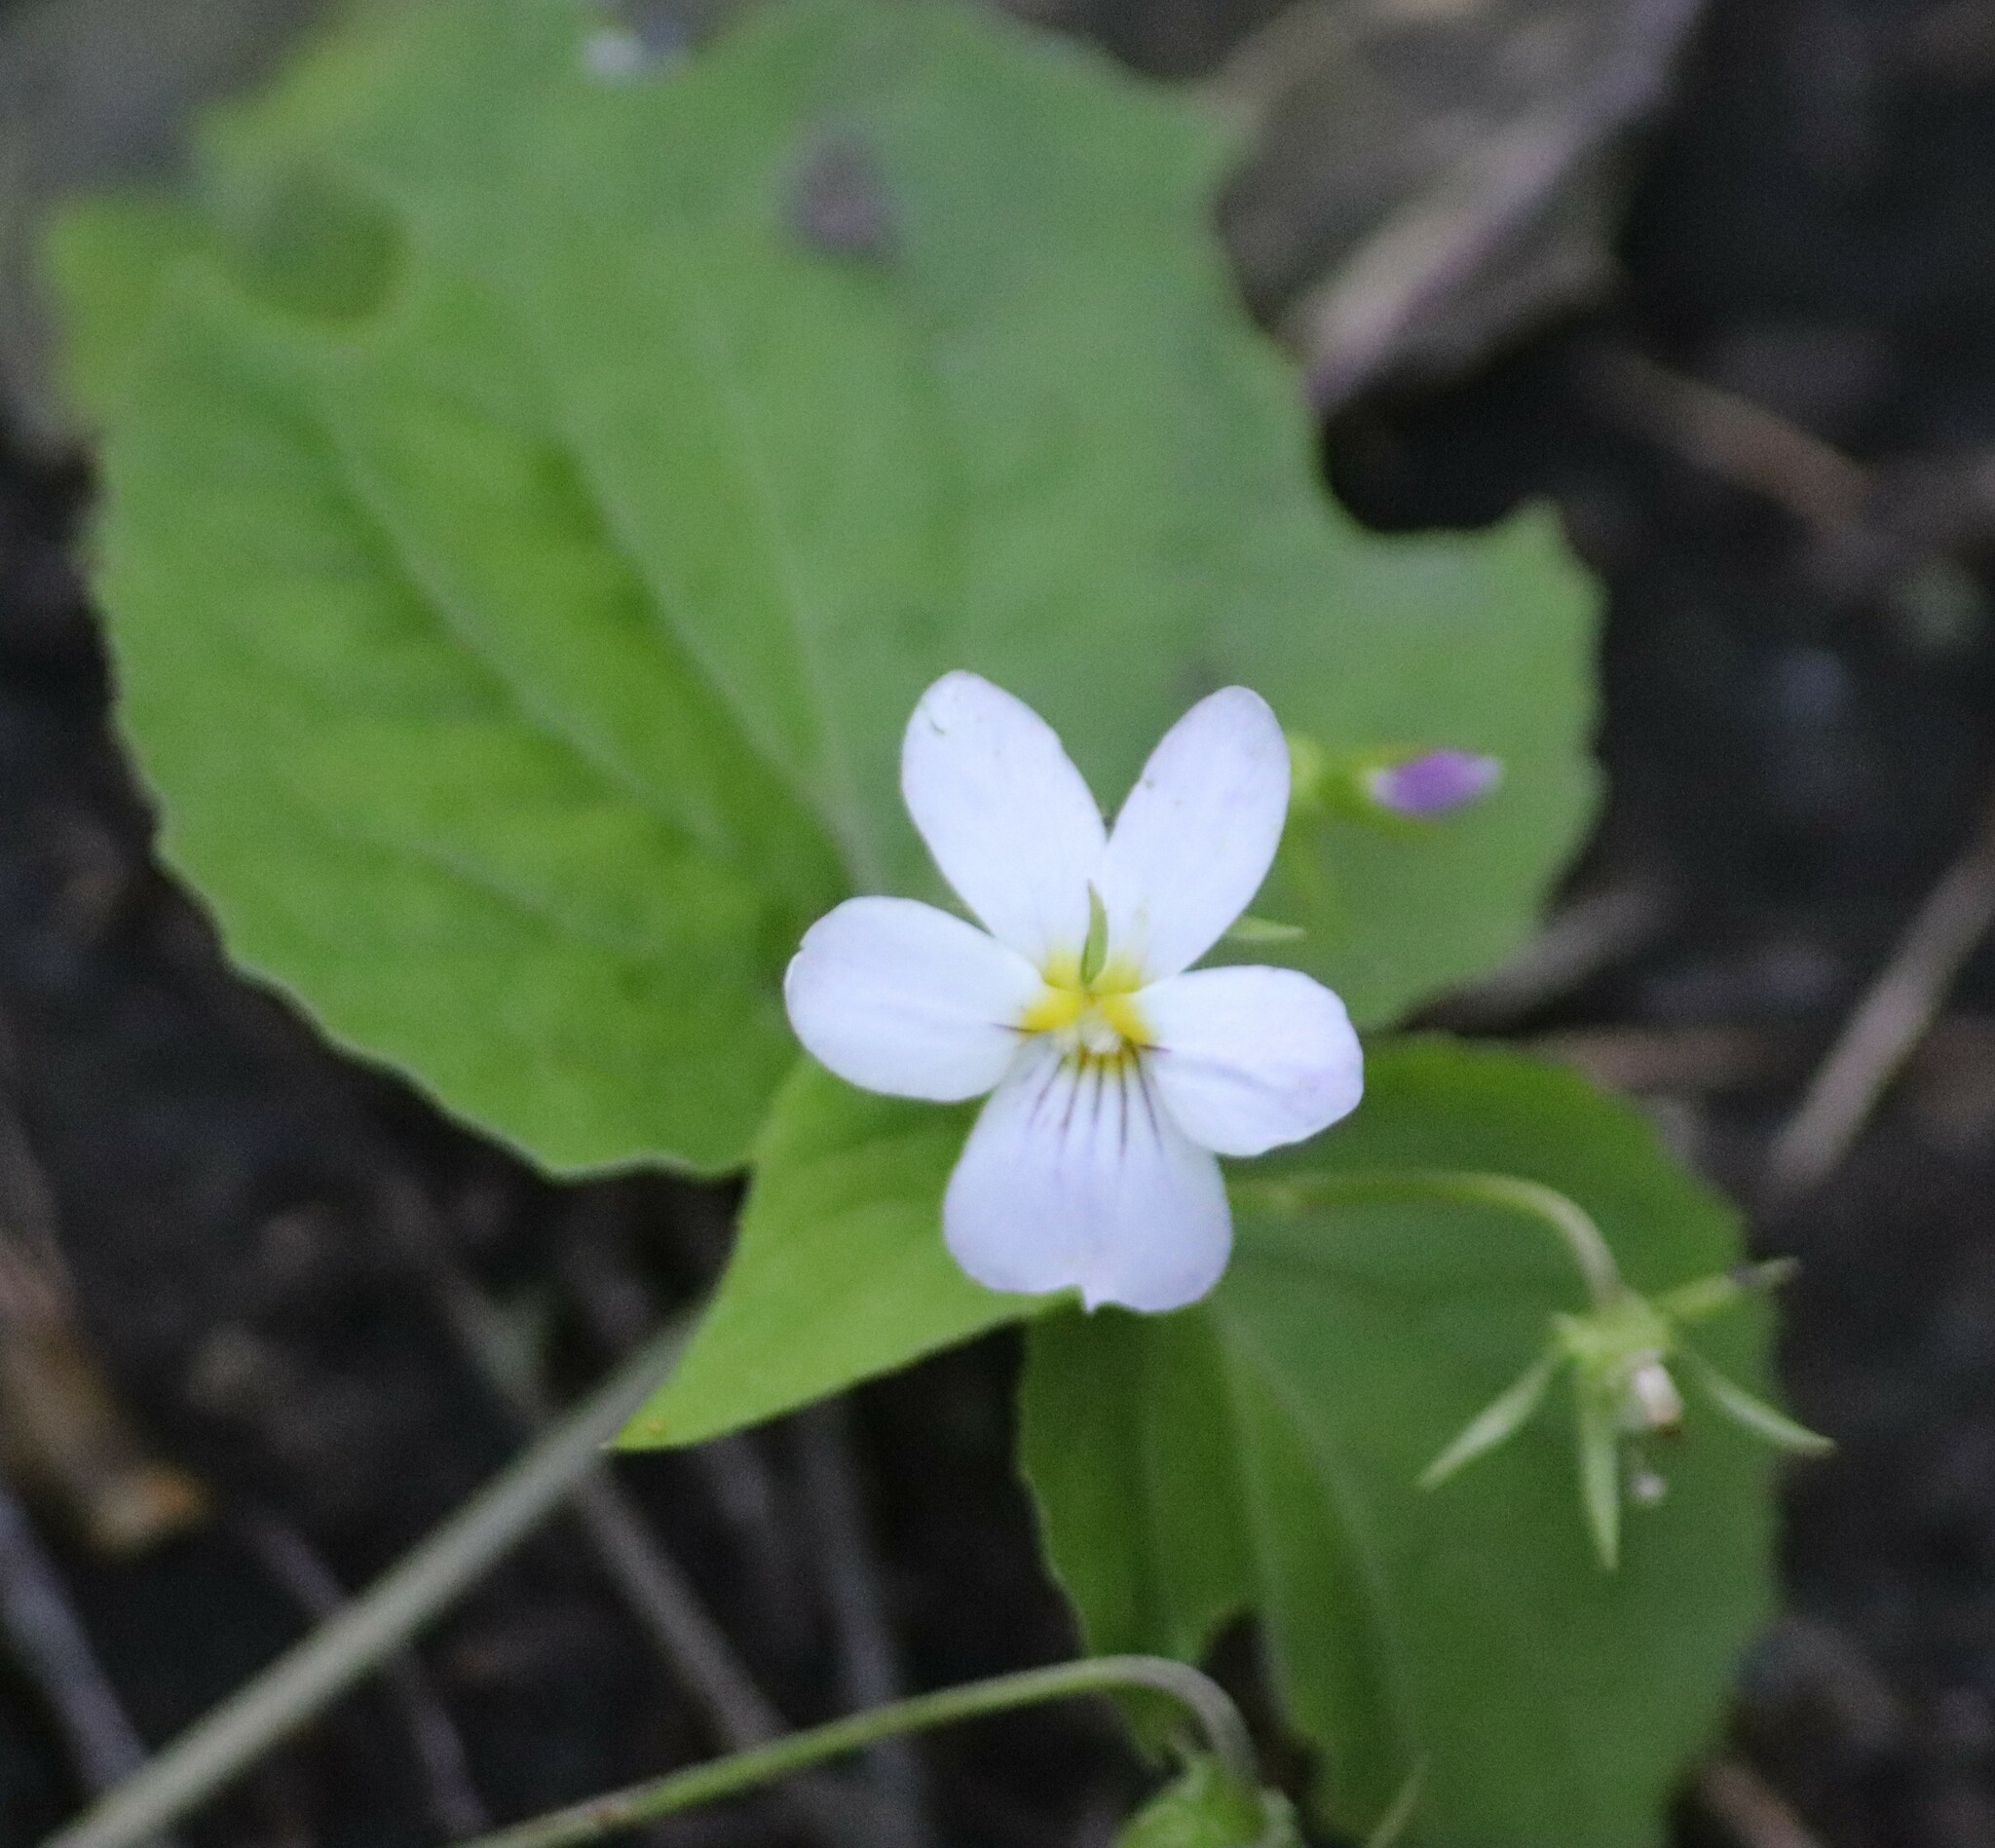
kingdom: Plantae
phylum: Tracheophyta
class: Magnoliopsida
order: Malpighiales
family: Violaceae
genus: Viola
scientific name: Viola canadensis
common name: Canada violet
